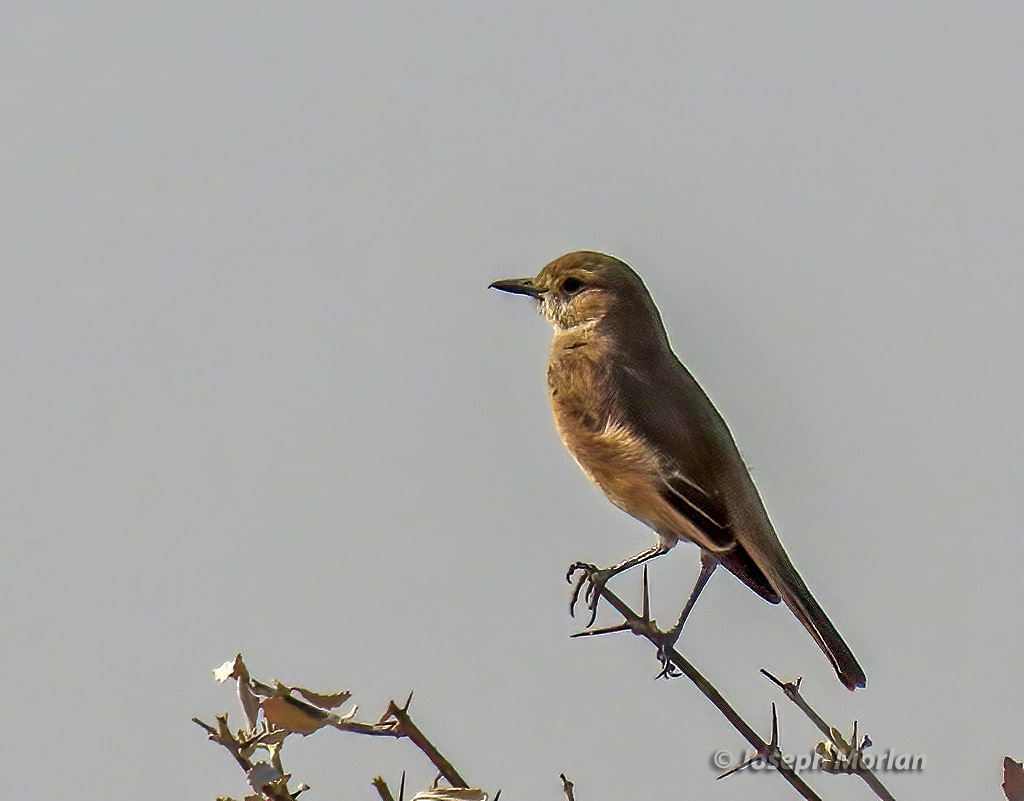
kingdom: Animalia
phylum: Chordata
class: Aves
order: Passeriformes
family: Muscicapidae
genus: Bradornis
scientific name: Bradornis infuscatus
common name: Chat flycatcher
